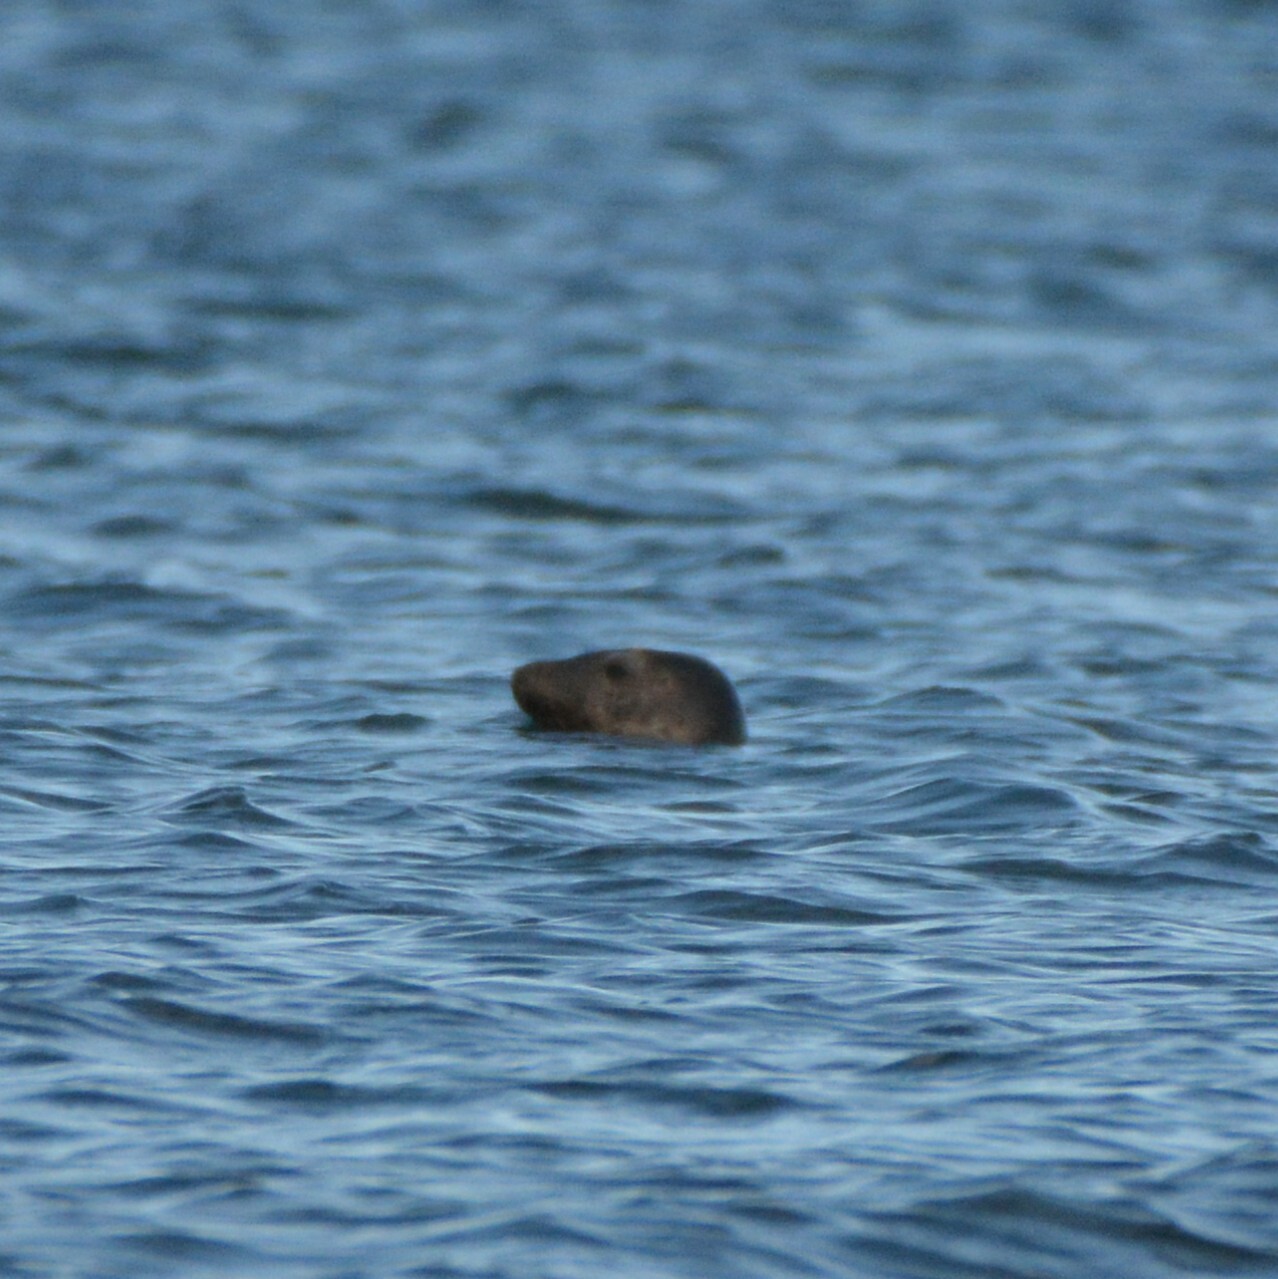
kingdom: Animalia
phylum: Chordata
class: Mammalia
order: Carnivora
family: Phocidae
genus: Halichoerus
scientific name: Halichoerus grypus
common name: Grey seal
